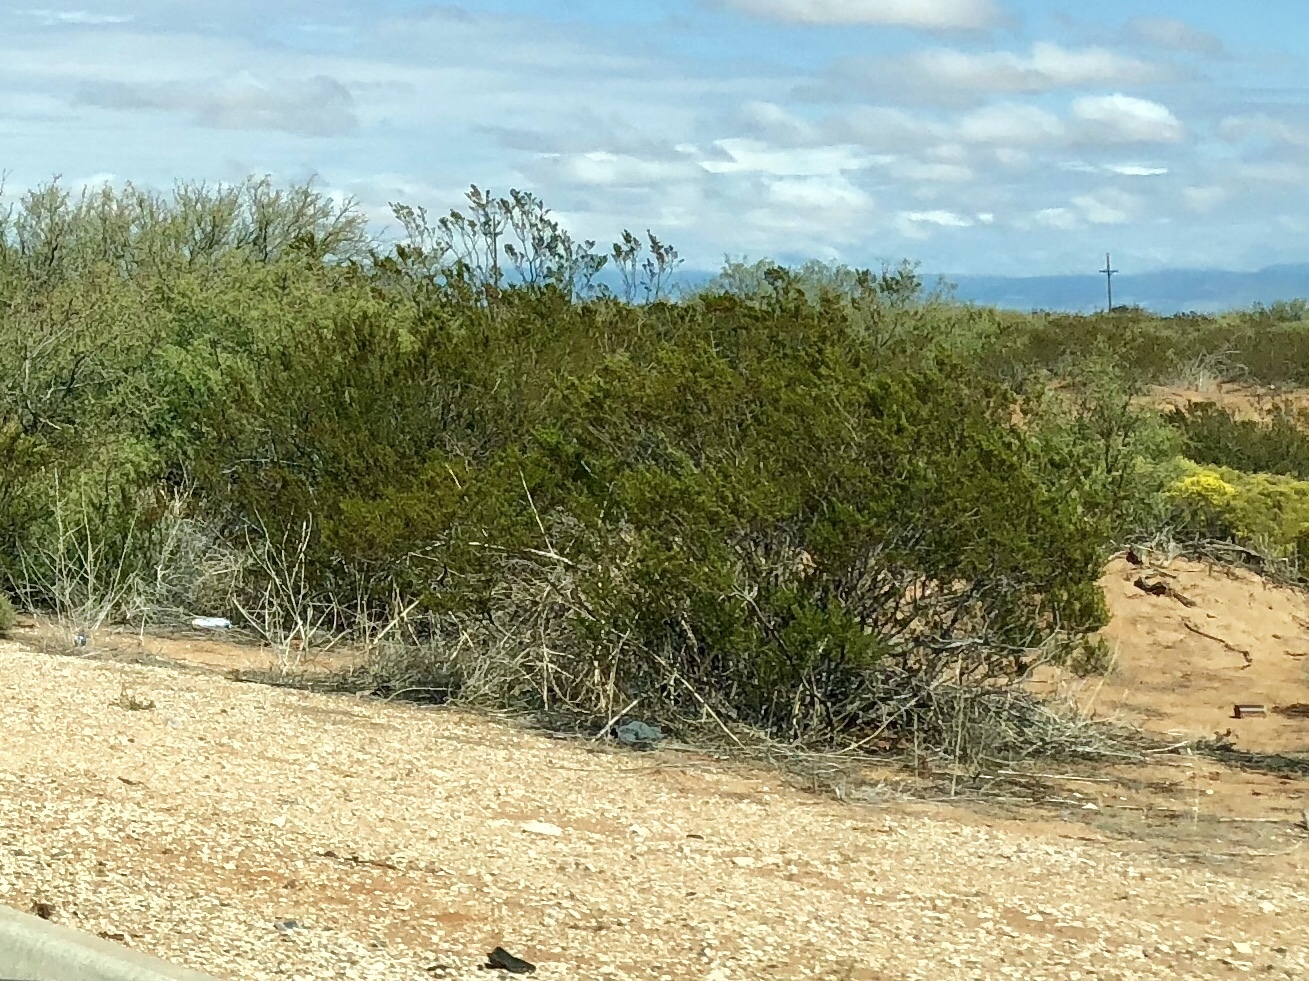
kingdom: Plantae
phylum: Tracheophyta
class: Magnoliopsida
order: Zygophyllales
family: Zygophyllaceae
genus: Larrea
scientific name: Larrea tridentata
